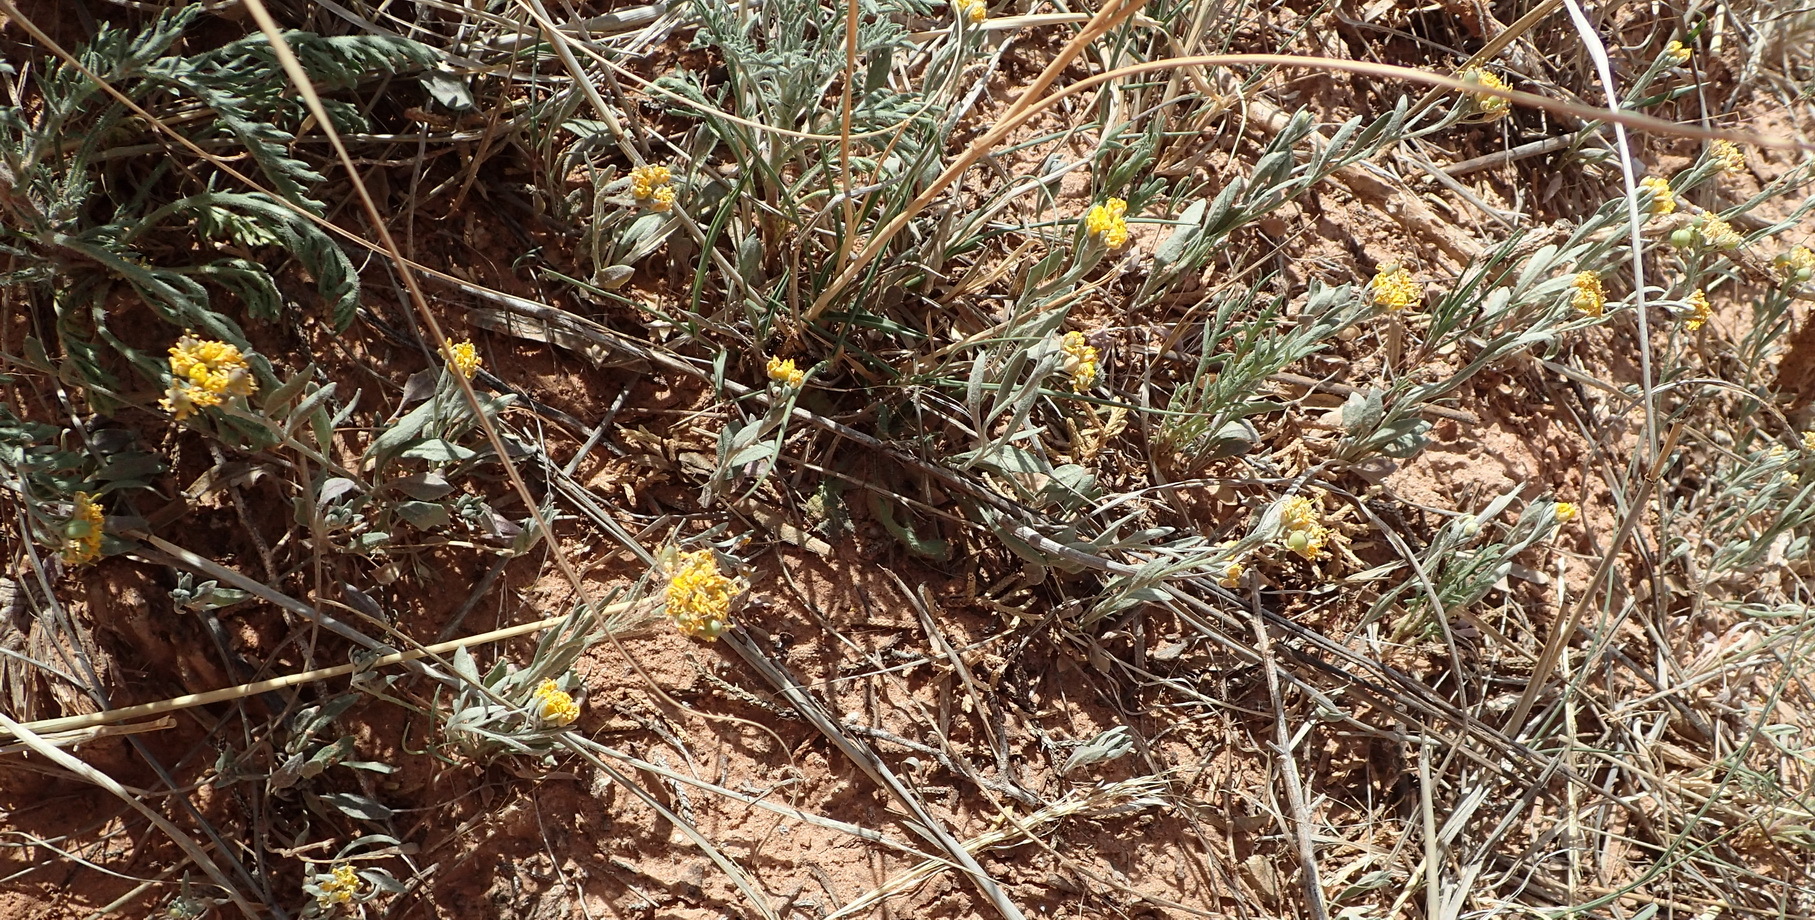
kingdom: Plantae
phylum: Tracheophyta
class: Magnoliopsida
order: Brassicales
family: Brassicaceae
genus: Physaria
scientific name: Physaria gordonii
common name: Gordon's bladderpod
